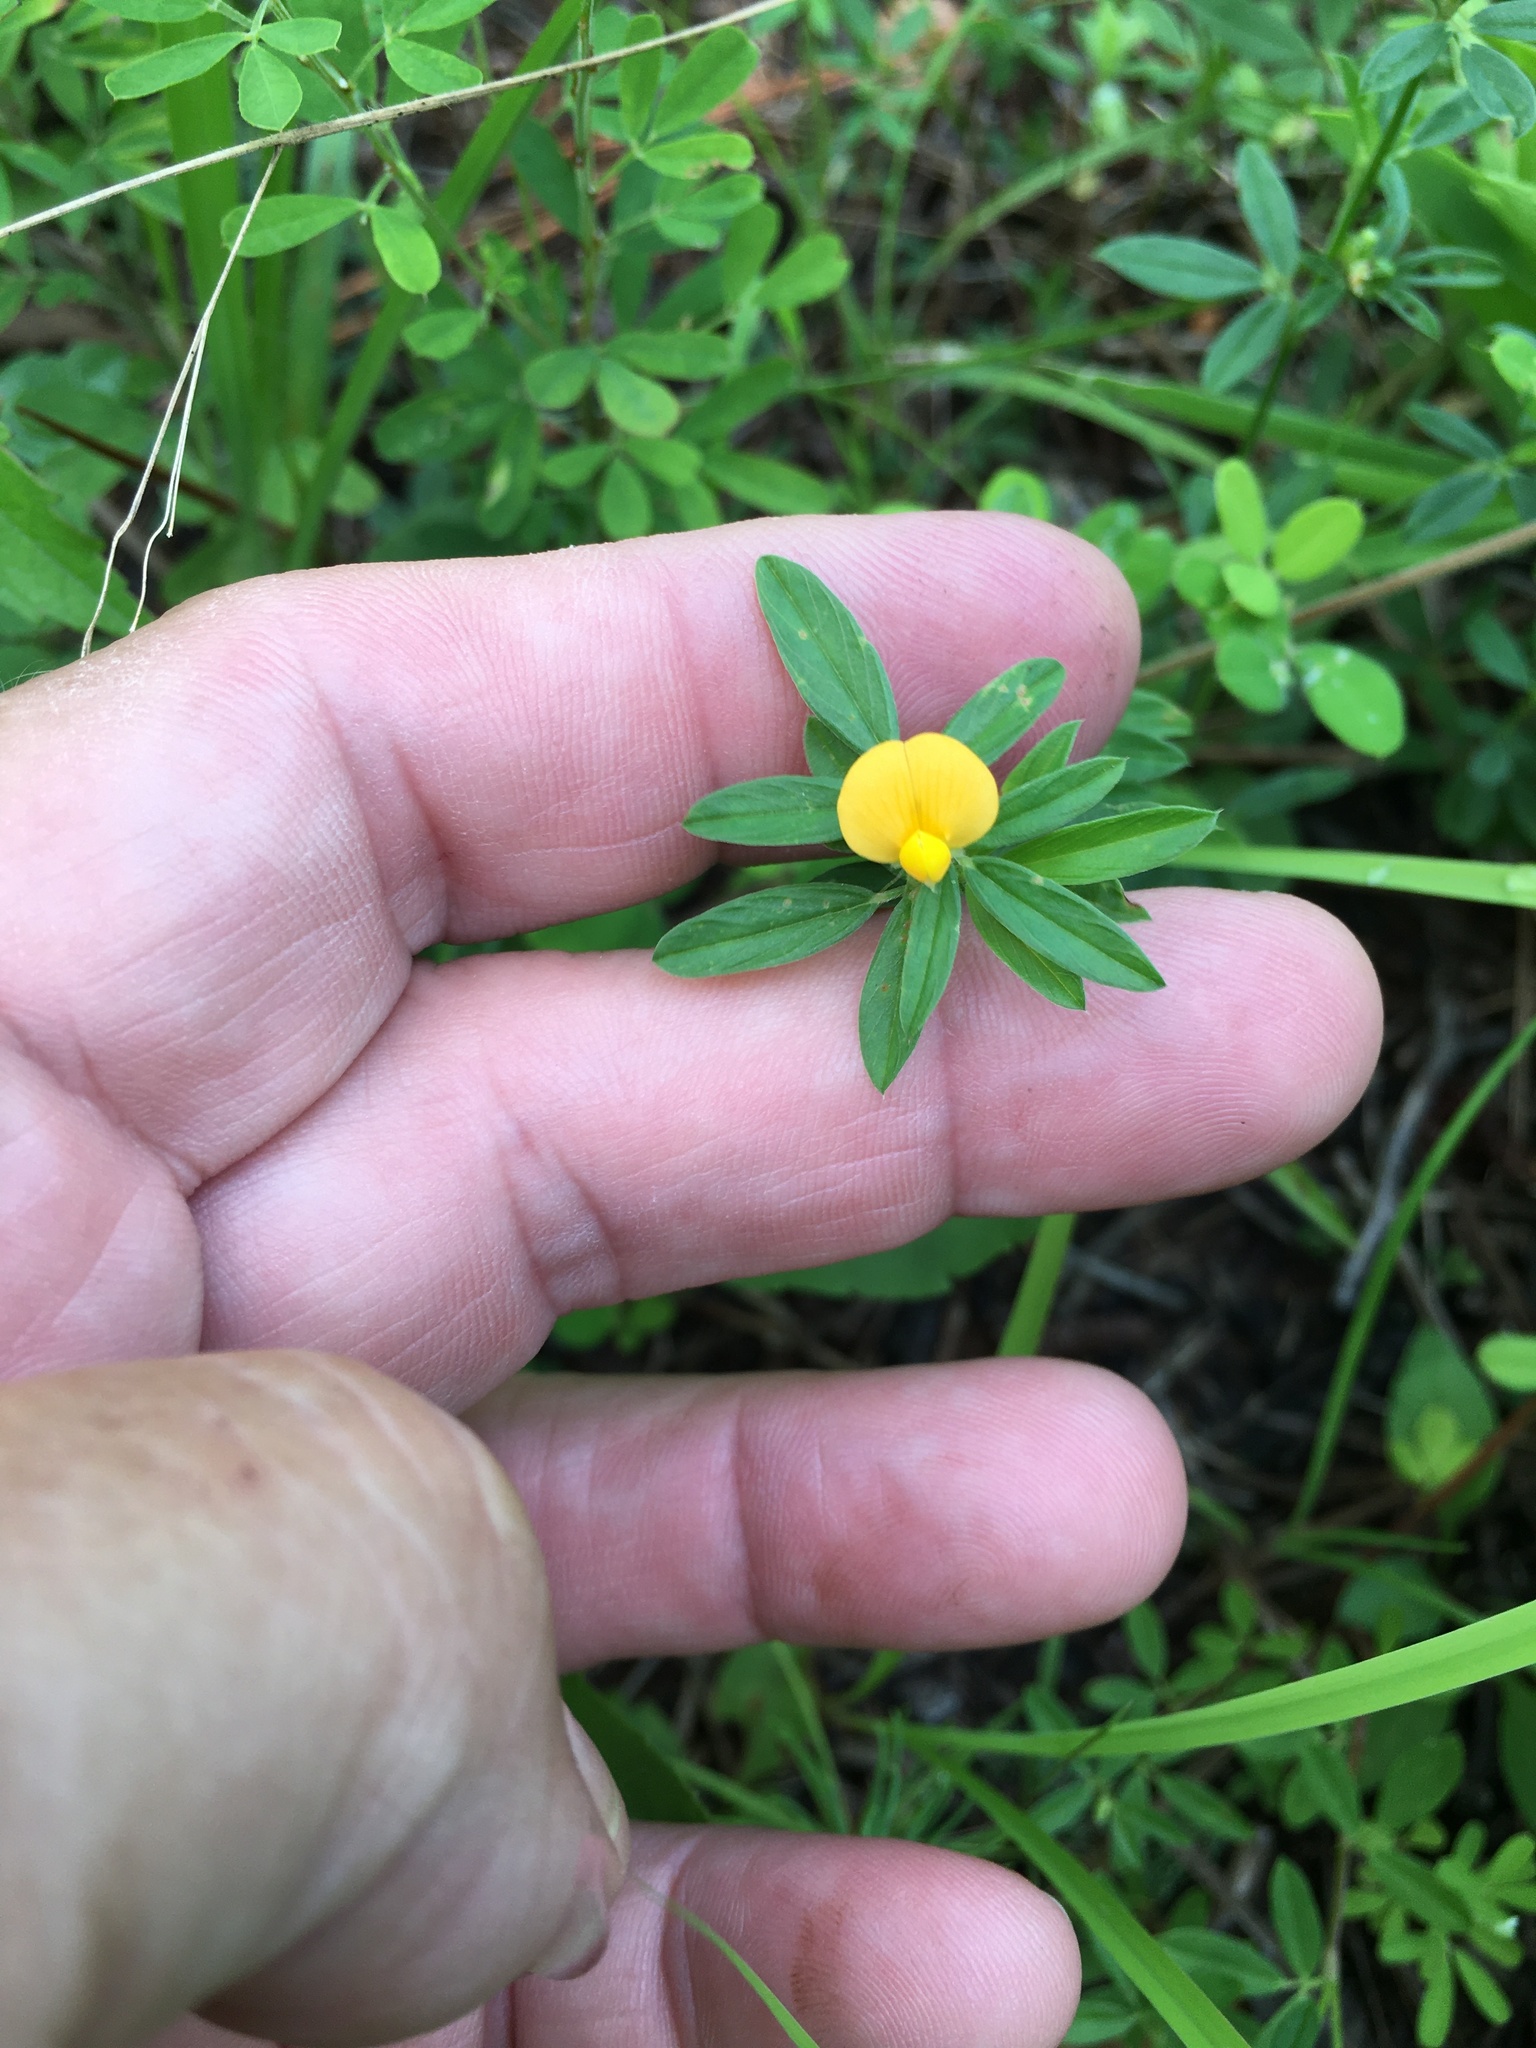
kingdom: Plantae
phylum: Tracheophyta
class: Magnoliopsida
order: Fabales
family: Fabaceae
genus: Stylosanthes
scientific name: Stylosanthes biflora
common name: Two-flower pencil-flower
